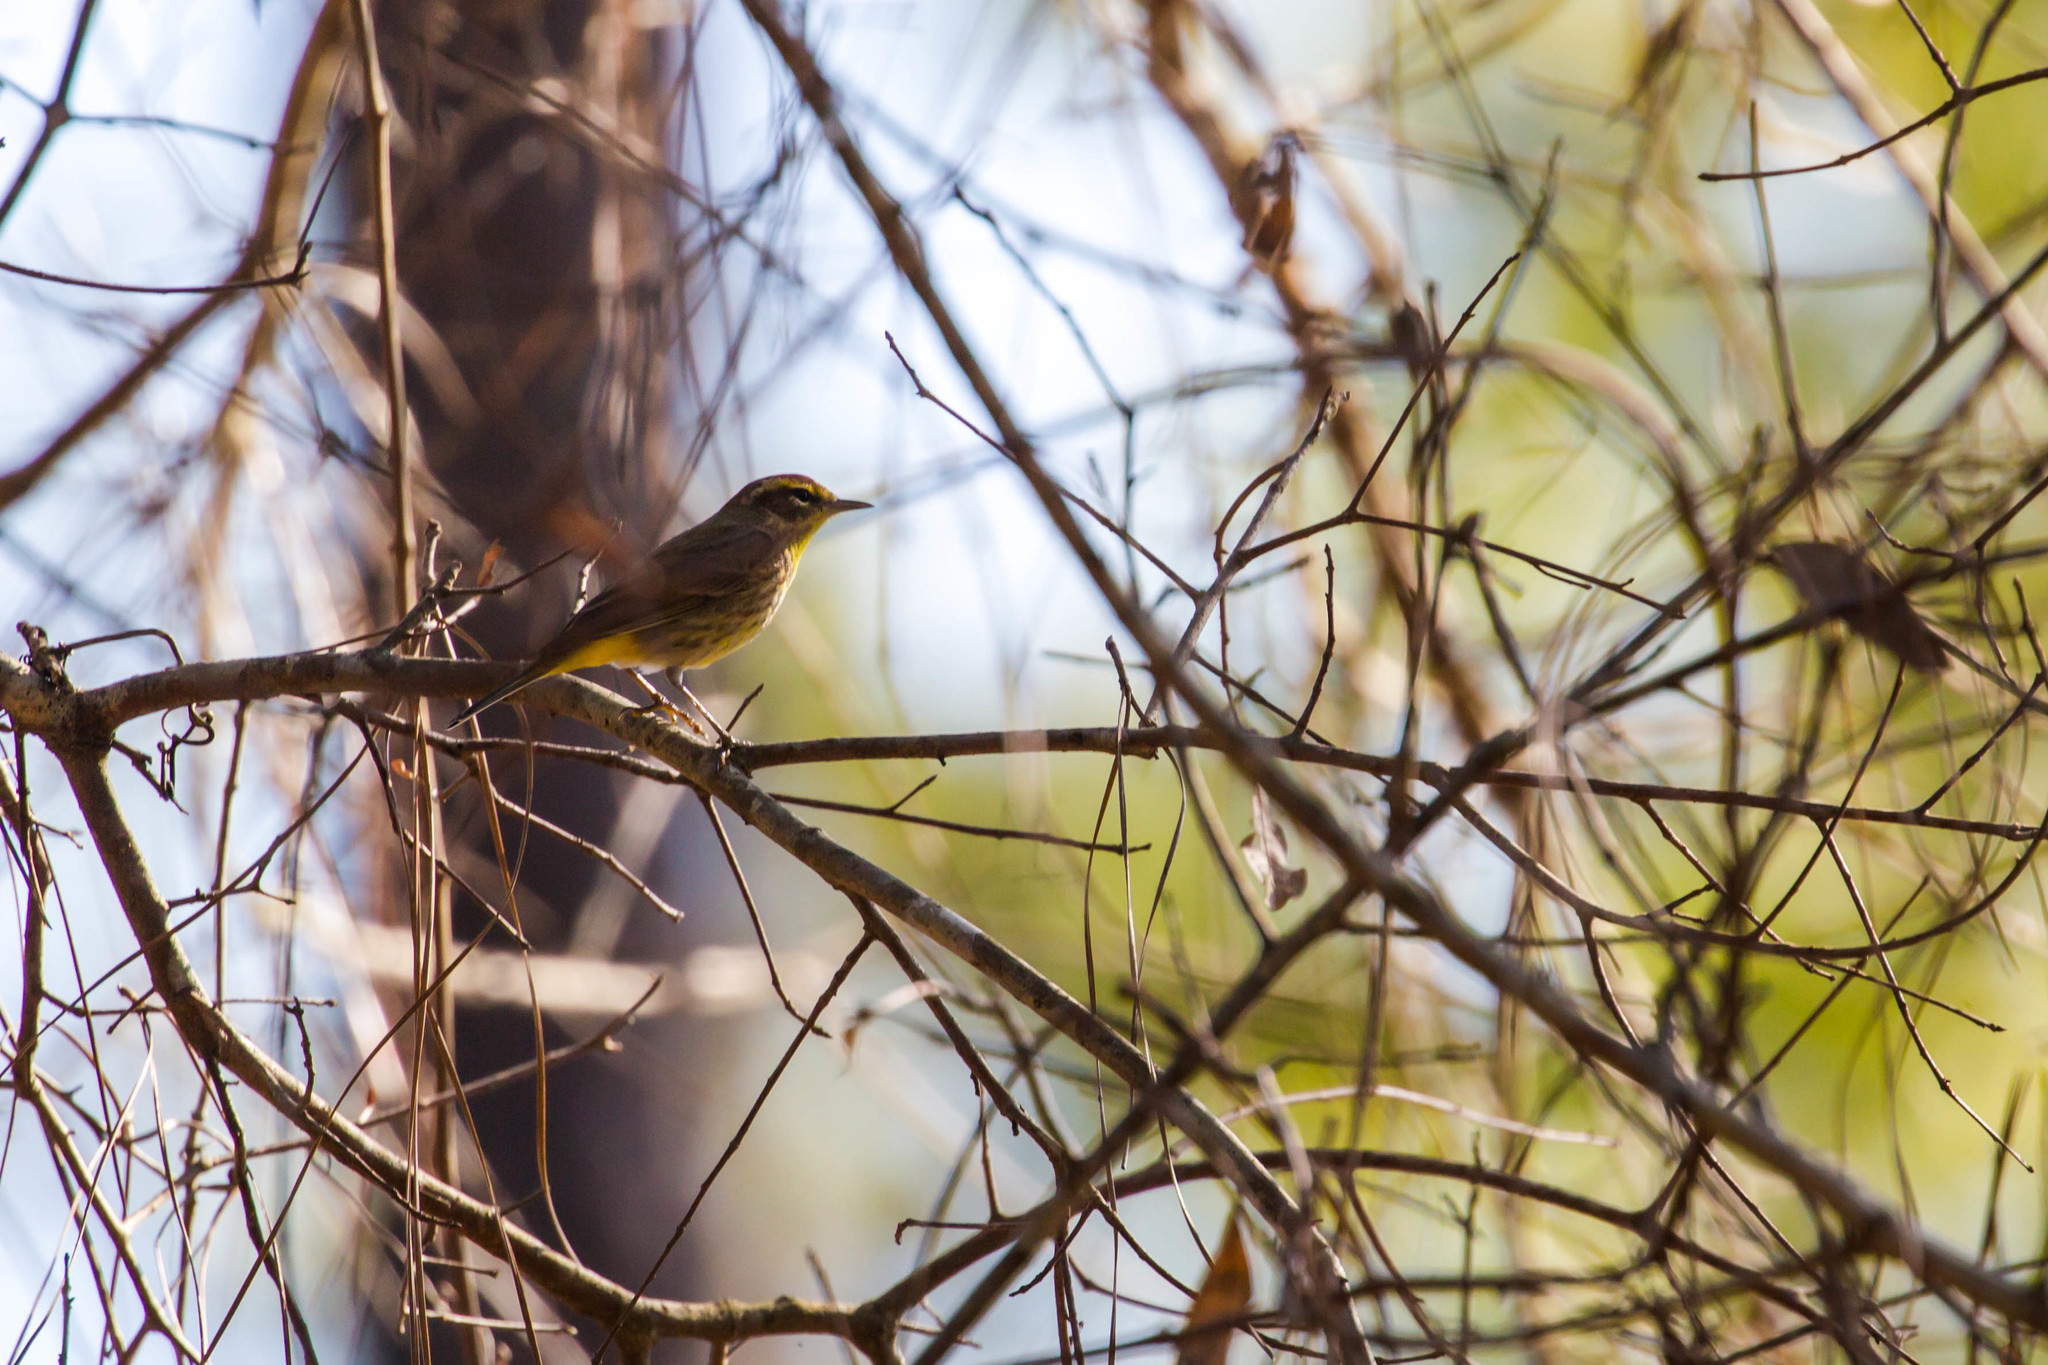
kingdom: Animalia
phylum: Chordata
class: Aves
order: Passeriformes
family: Parulidae
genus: Setophaga
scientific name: Setophaga palmarum
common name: Palm warbler
